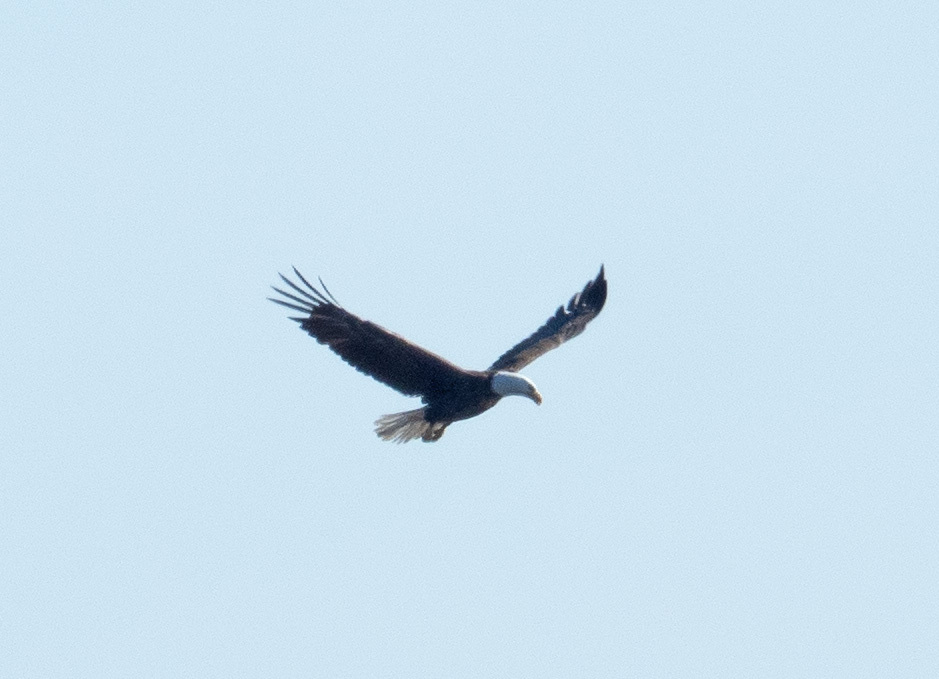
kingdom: Animalia
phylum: Chordata
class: Aves
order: Accipitriformes
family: Accipitridae
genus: Haliaeetus
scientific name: Haliaeetus leucocephalus
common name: Bald eagle
